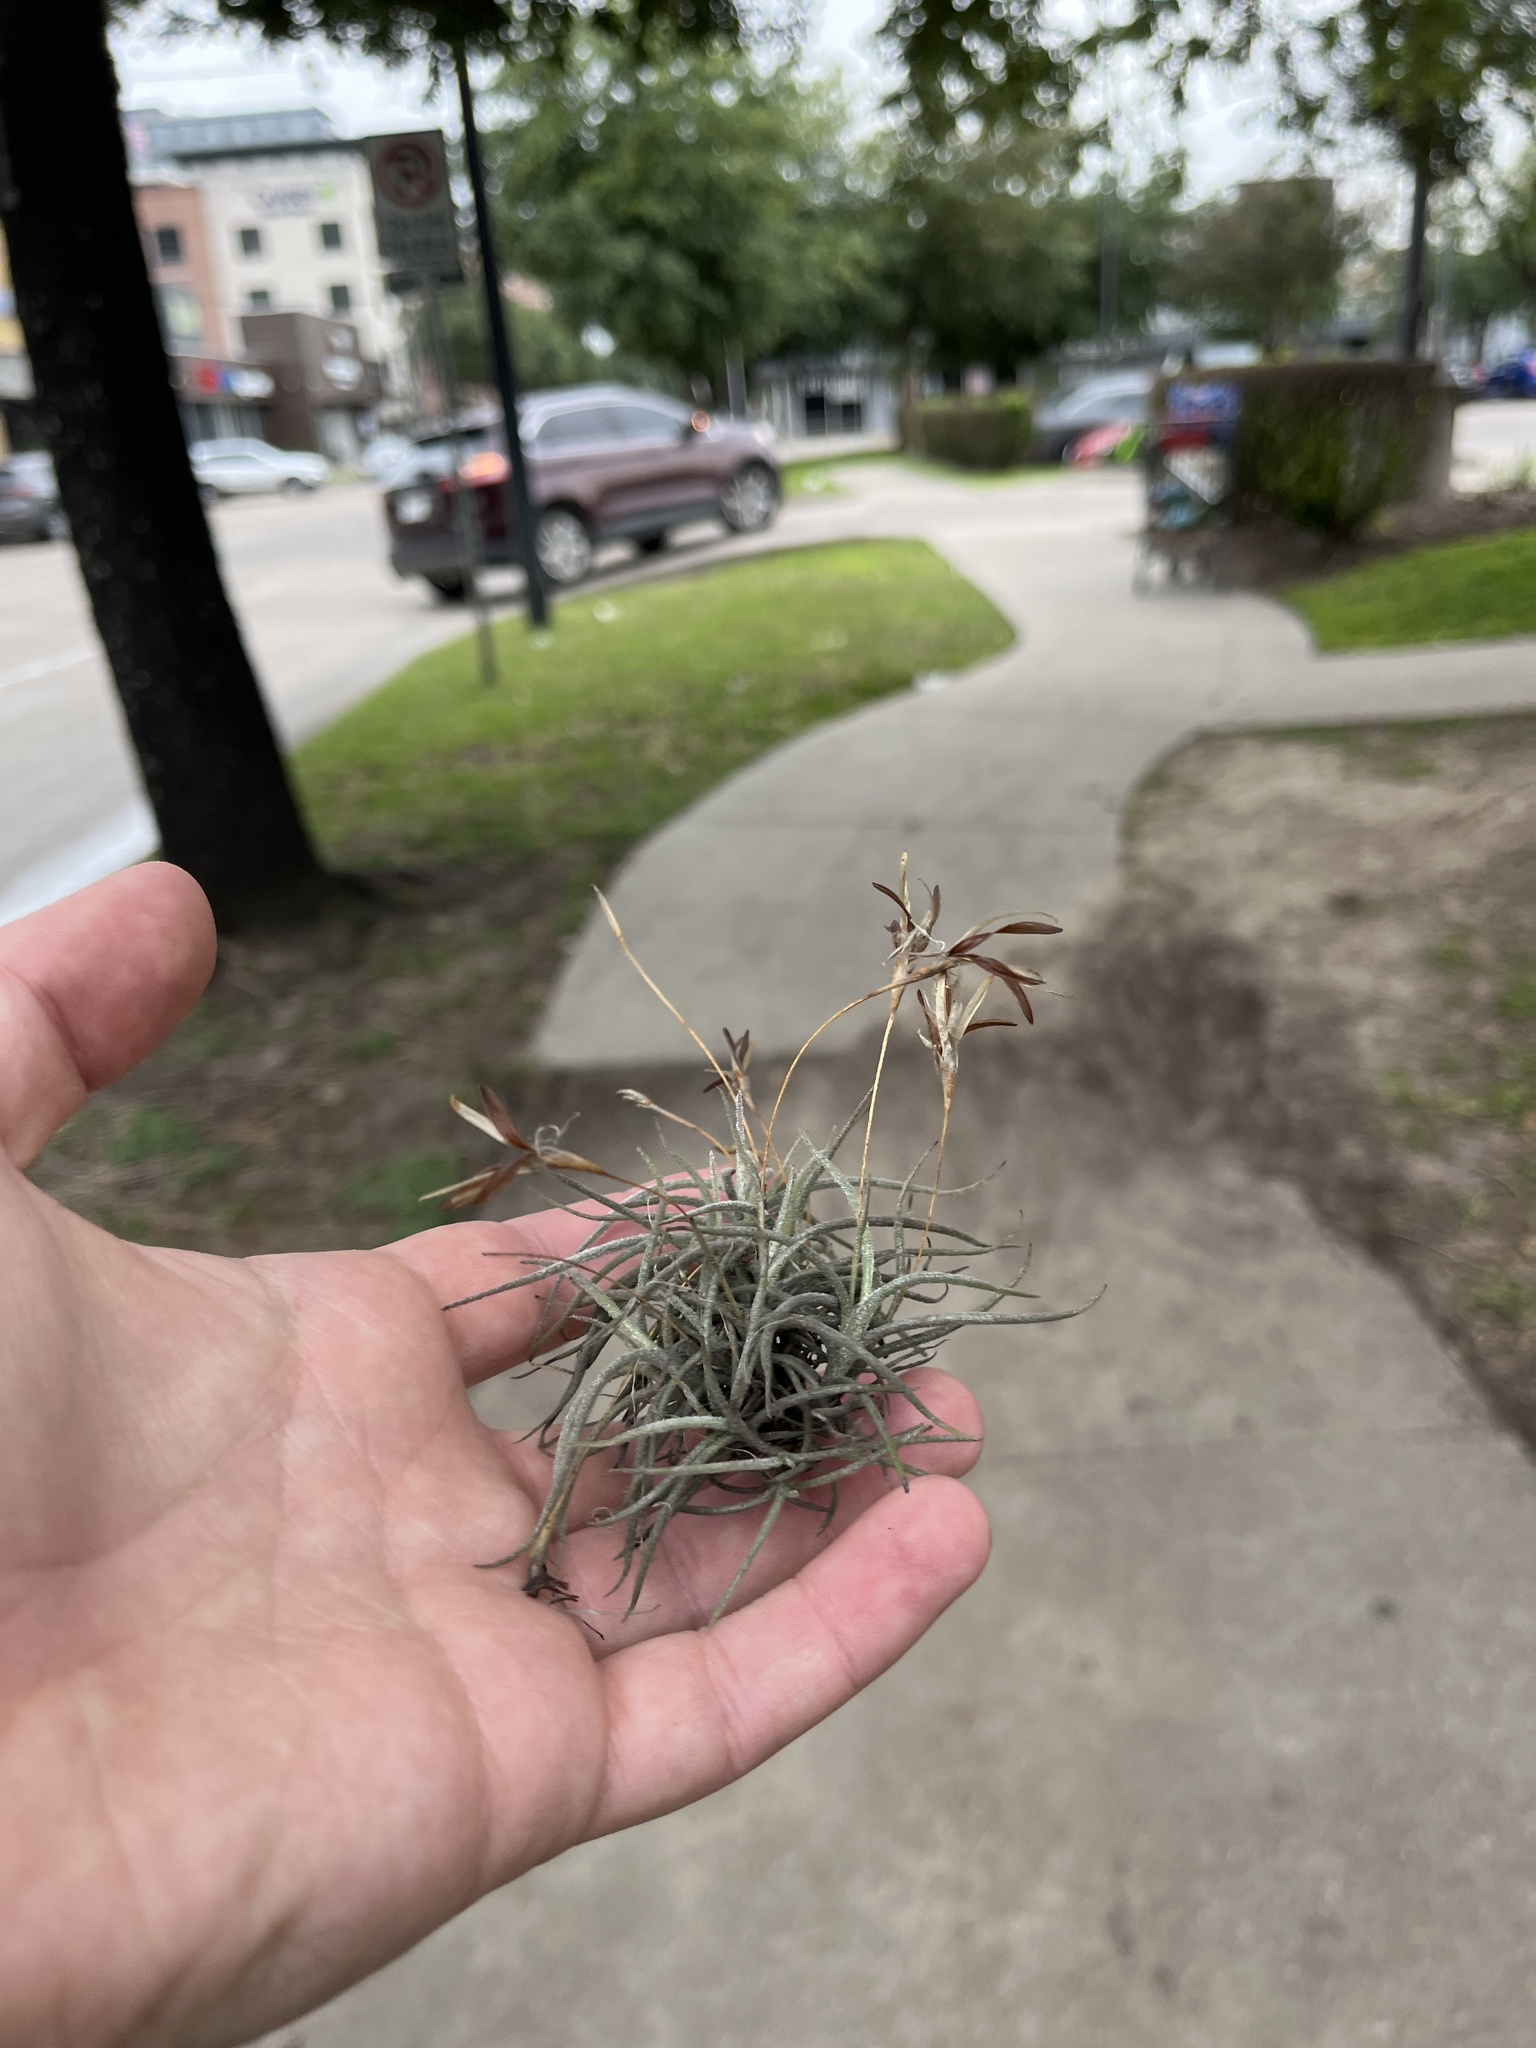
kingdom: Plantae
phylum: Tracheophyta
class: Liliopsida
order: Poales
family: Bromeliaceae
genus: Tillandsia
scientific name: Tillandsia recurvata
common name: Small ballmoss
